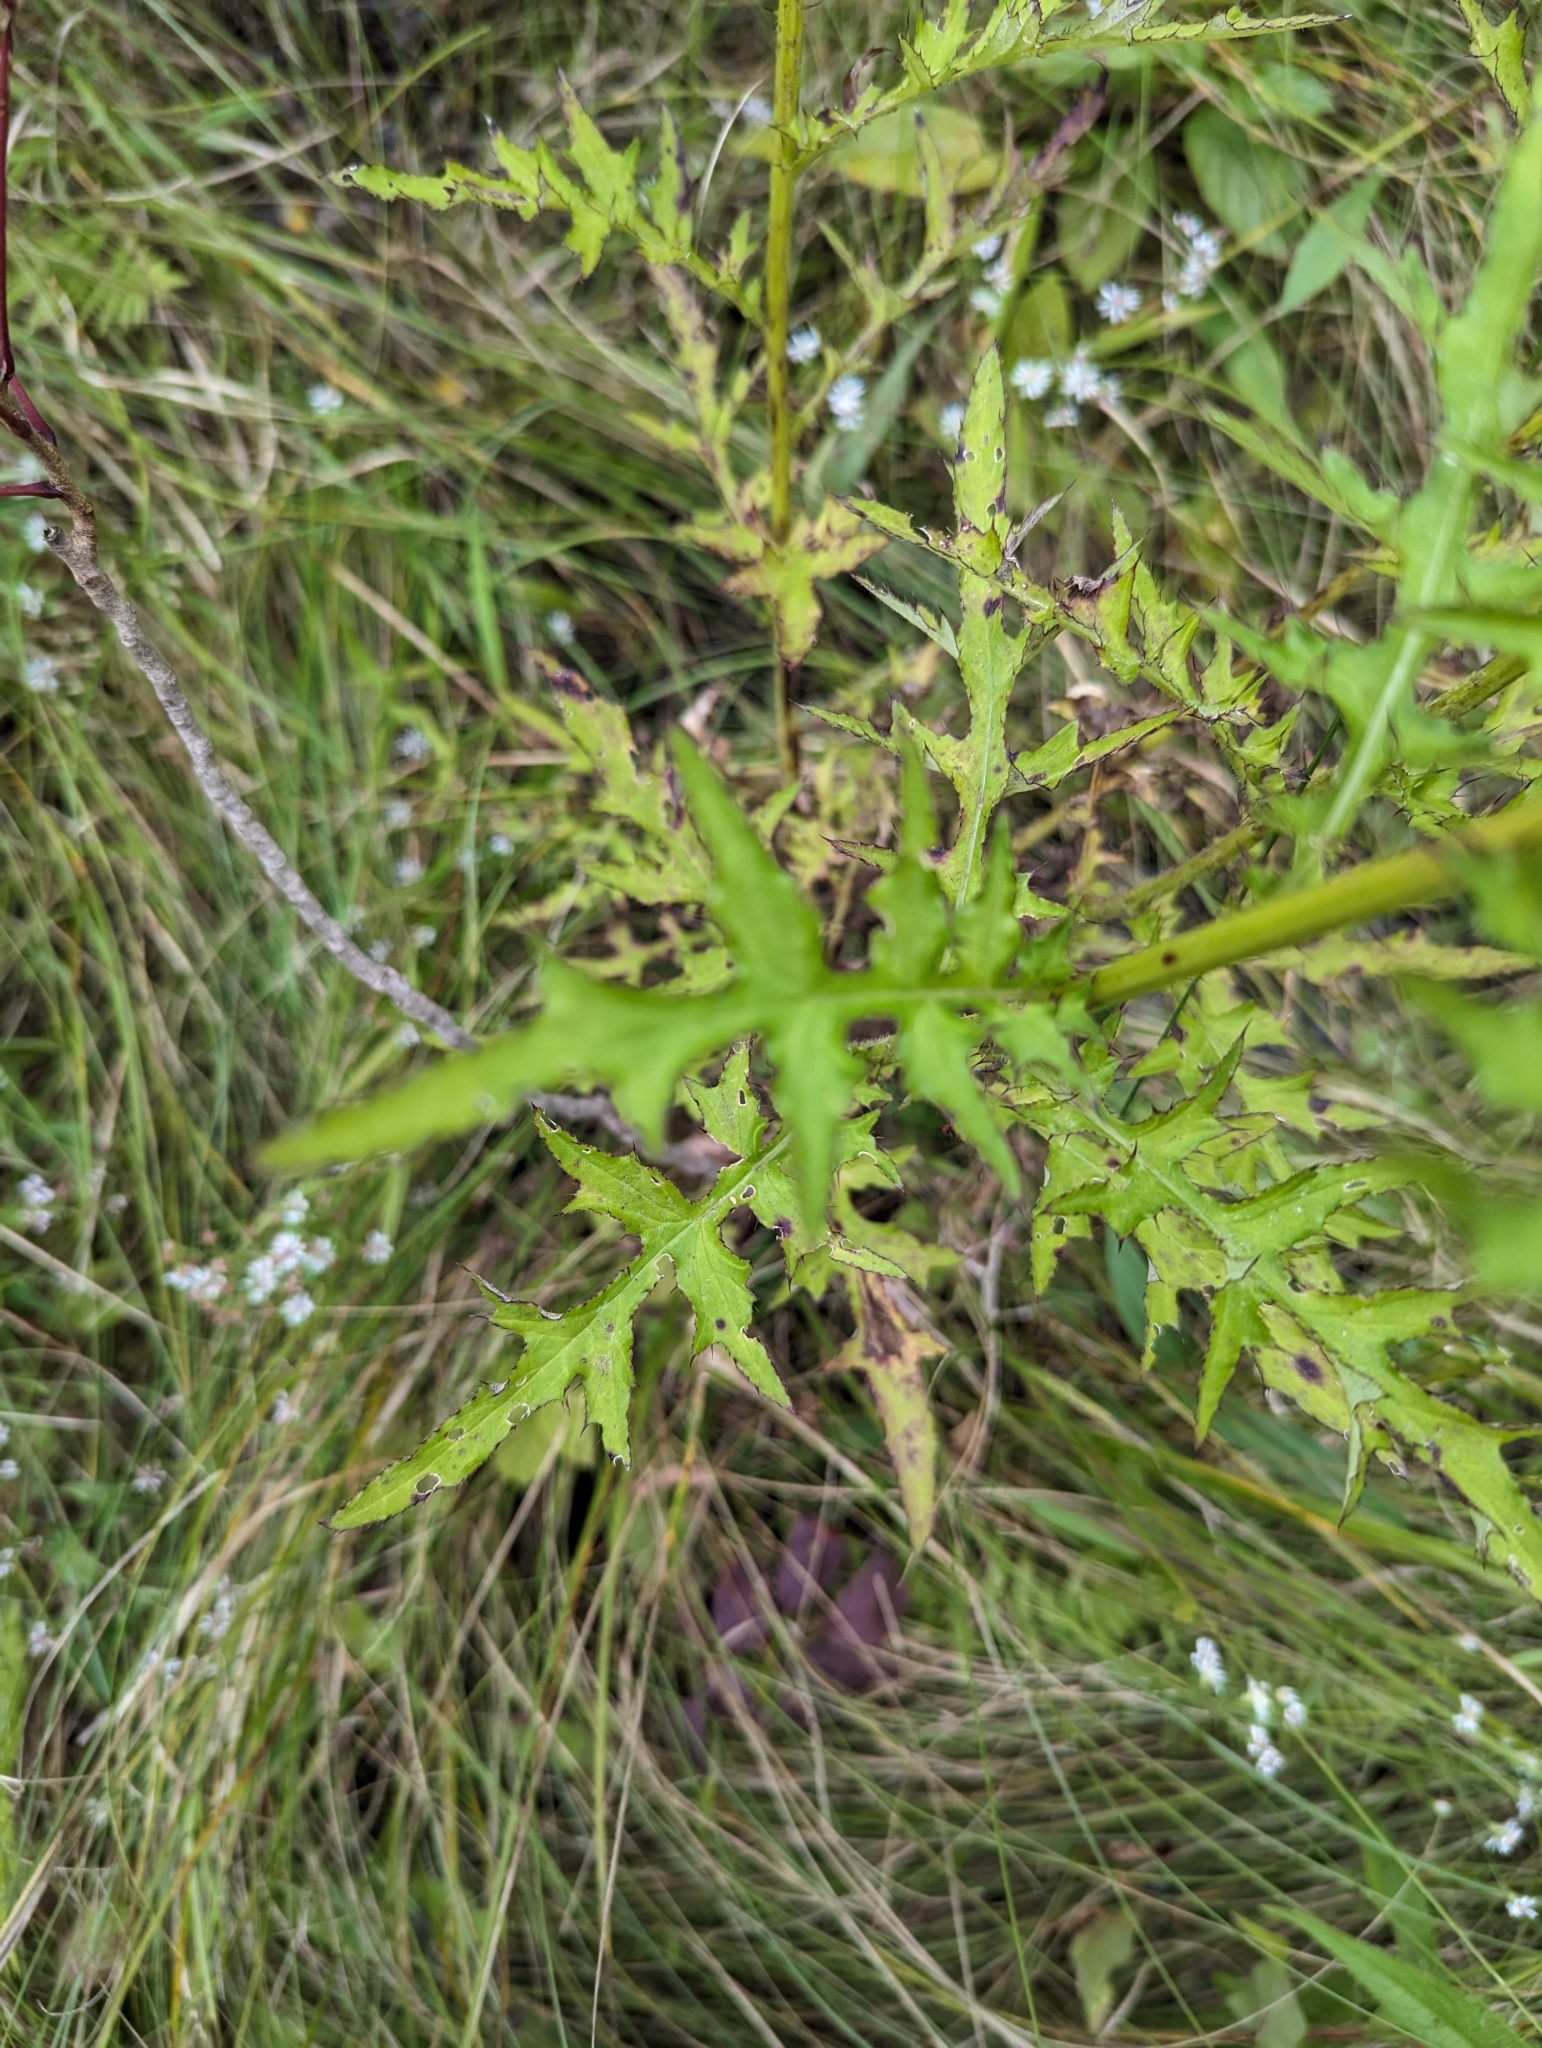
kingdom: Plantae
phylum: Tracheophyta
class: Magnoliopsida
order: Asterales
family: Asteraceae
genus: Cirsium
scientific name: Cirsium muticum
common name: Dunce-nettle
